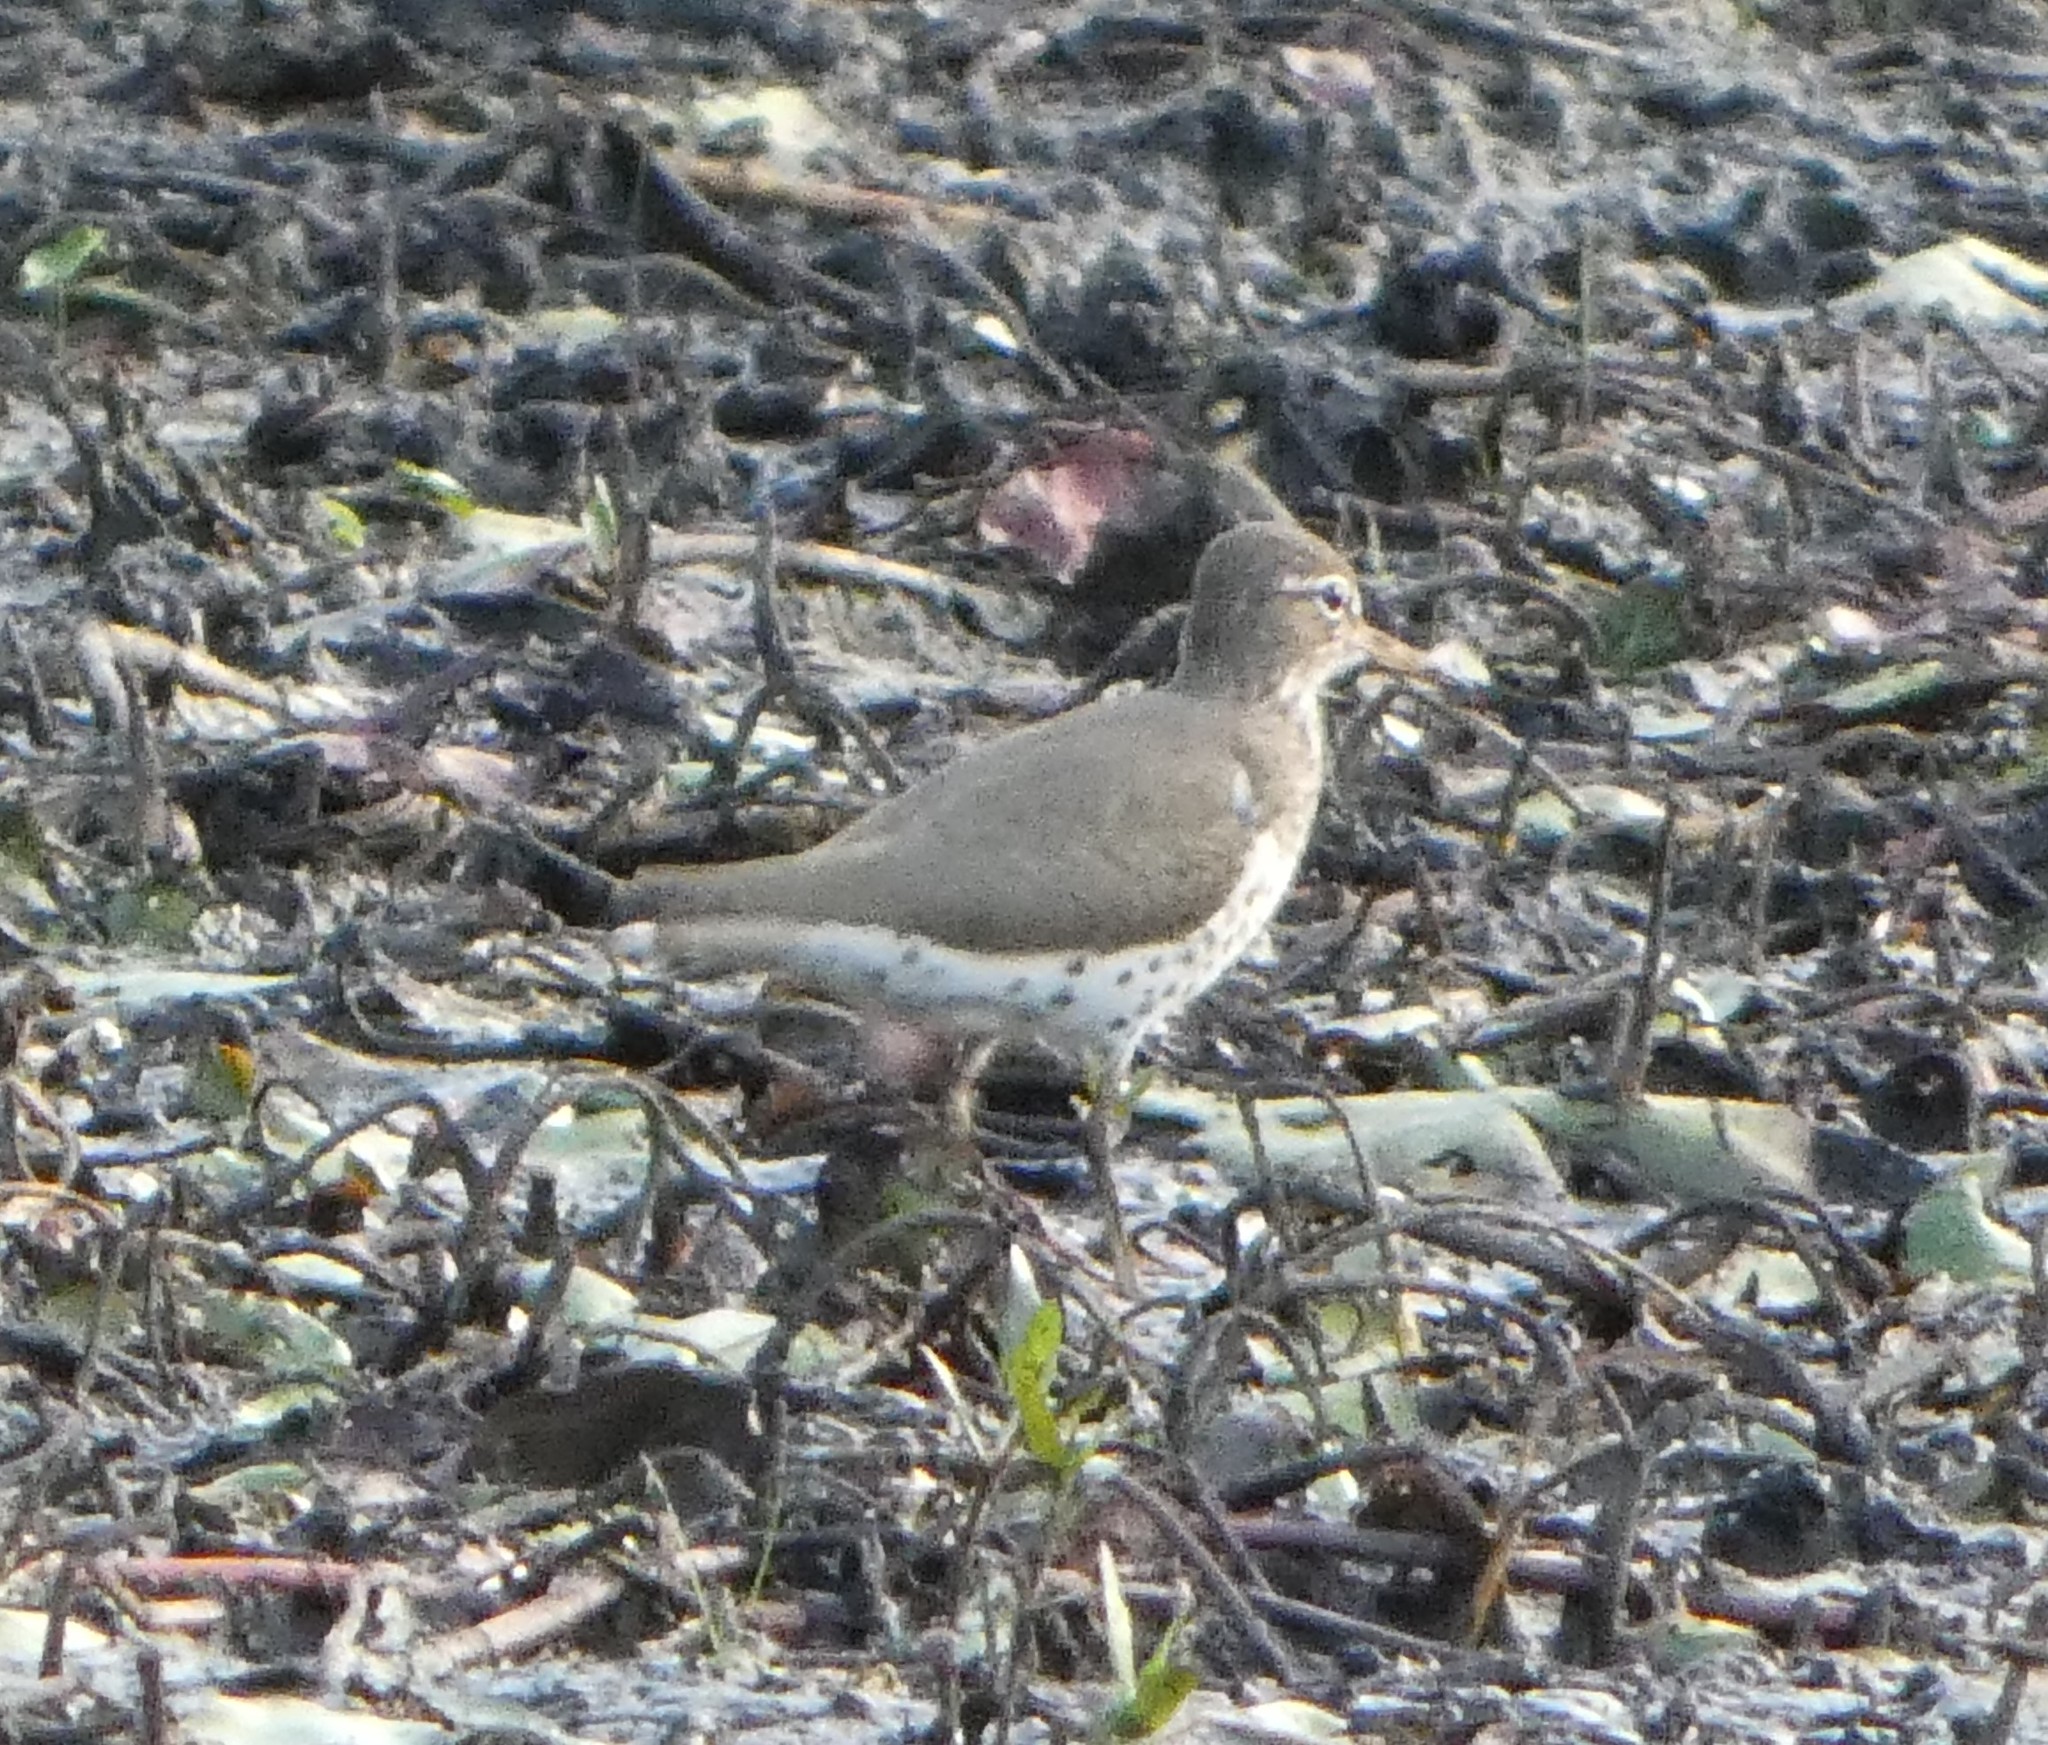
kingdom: Animalia
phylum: Chordata
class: Aves
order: Charadriiformes
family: Scolopacidae
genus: Actitis
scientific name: Actitis macularius
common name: Spotted sandpiper
